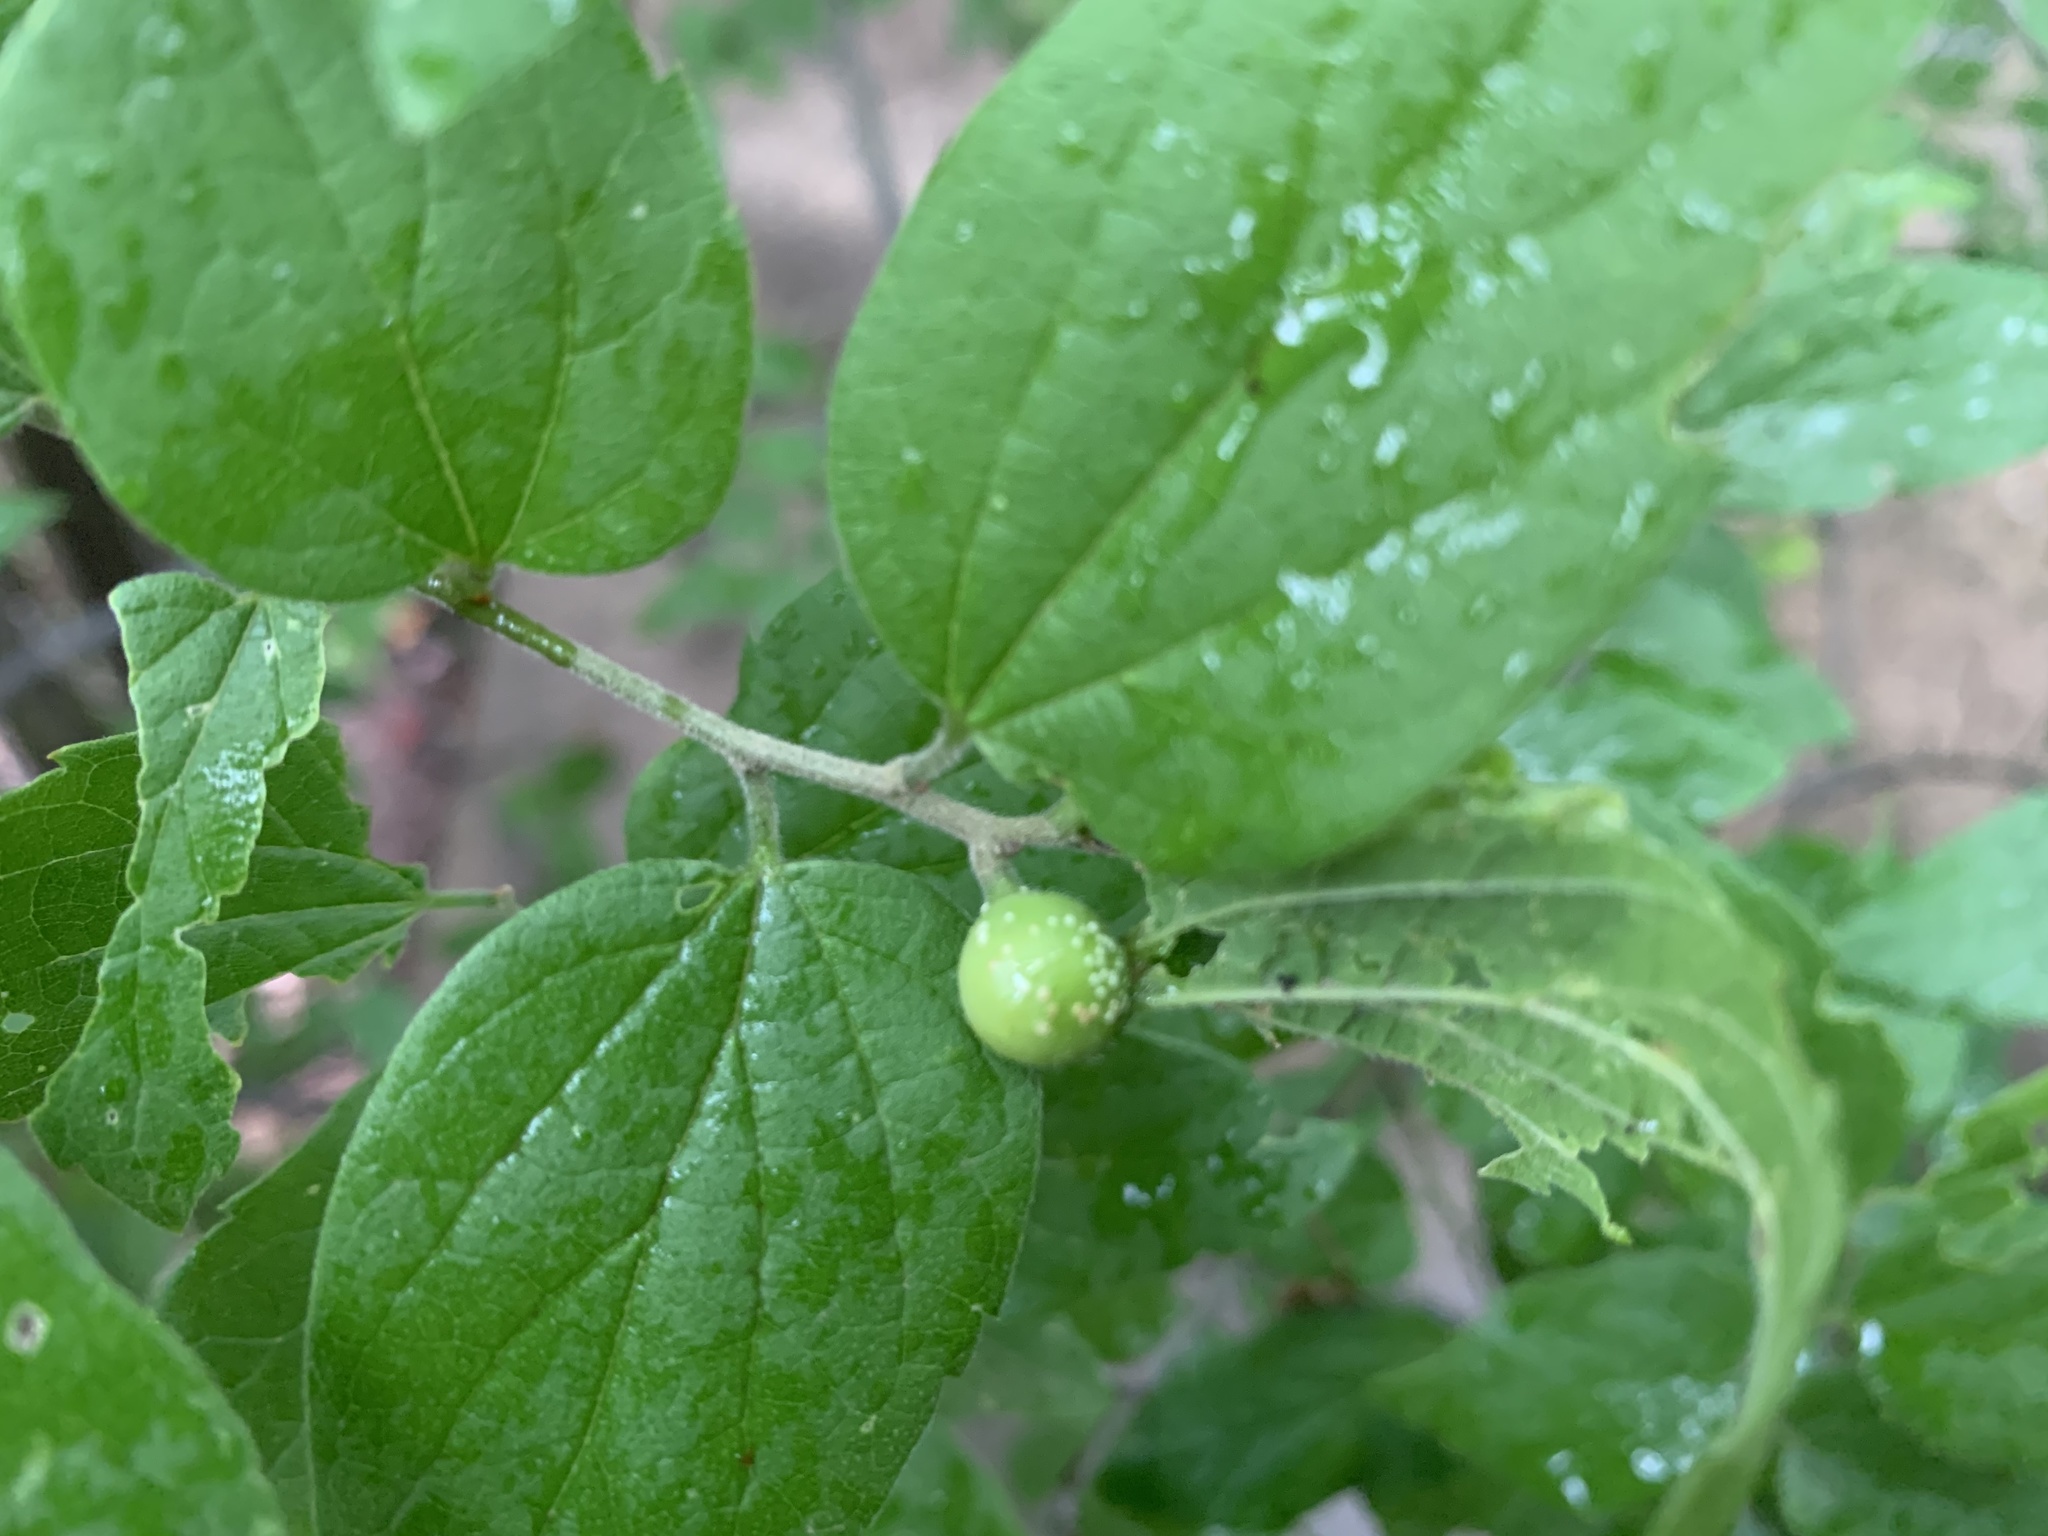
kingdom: Animalia
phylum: Arthropoda
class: Insecta
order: Hemiptera
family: Aphalaridae
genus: Pachypsylla
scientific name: Pachypsylla venusta
